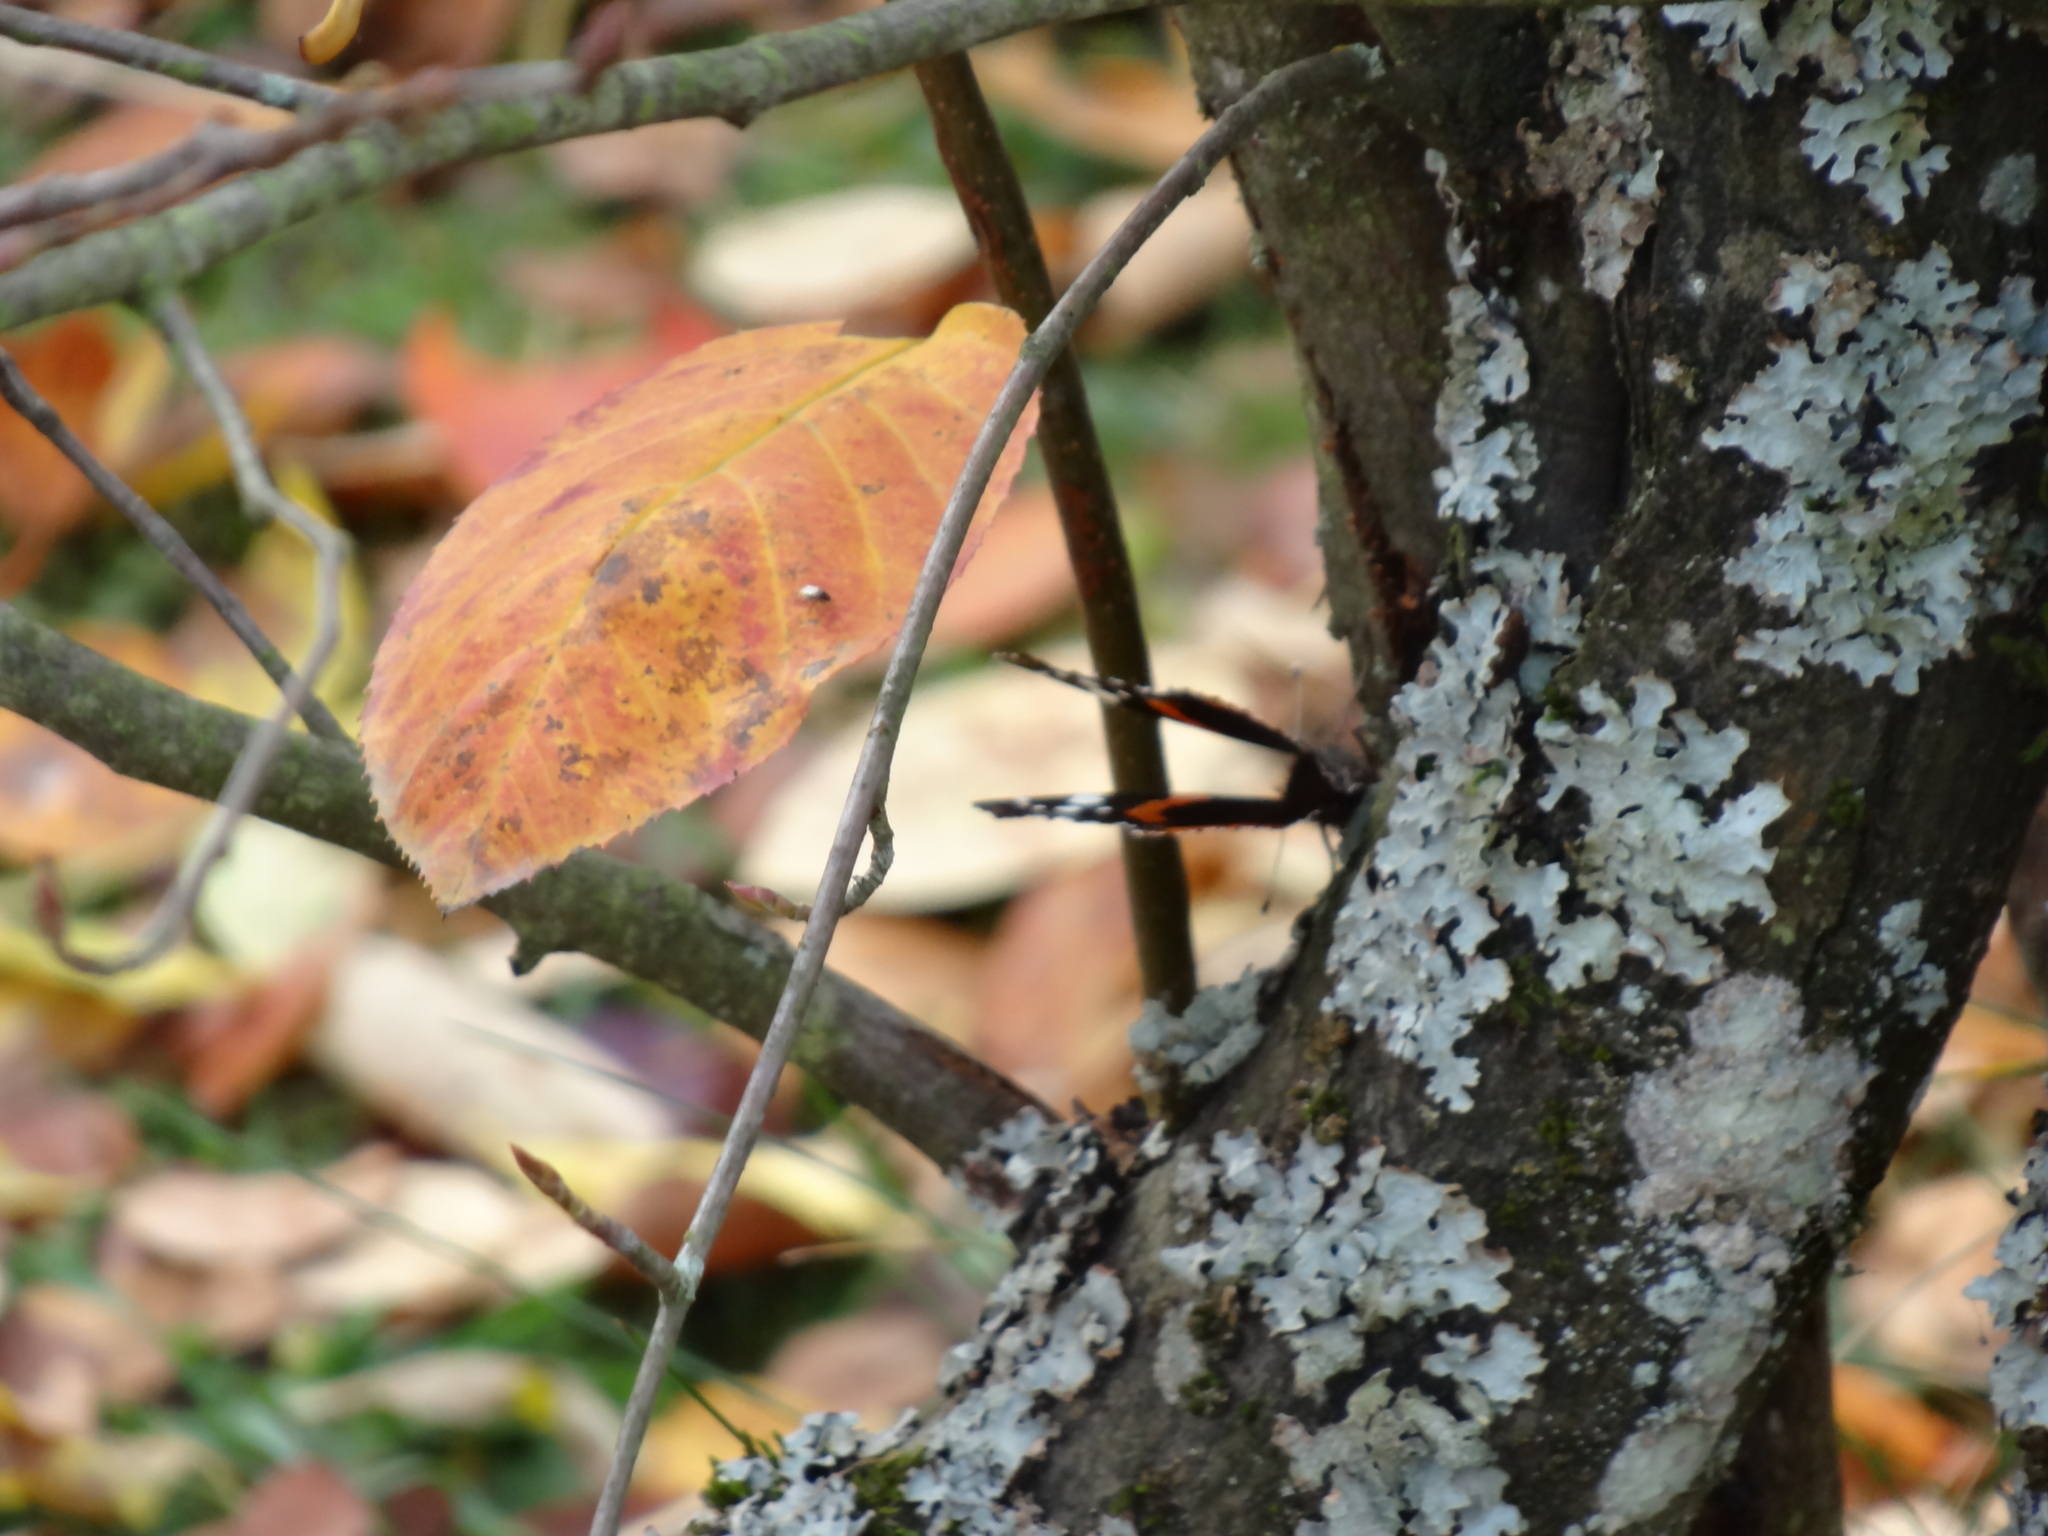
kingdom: Animalia
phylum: Arthropoda
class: Insecta
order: Lepidoptera
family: Nymphalidae
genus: Vanessa
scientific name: Vanessa atalanta
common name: Red admiral
